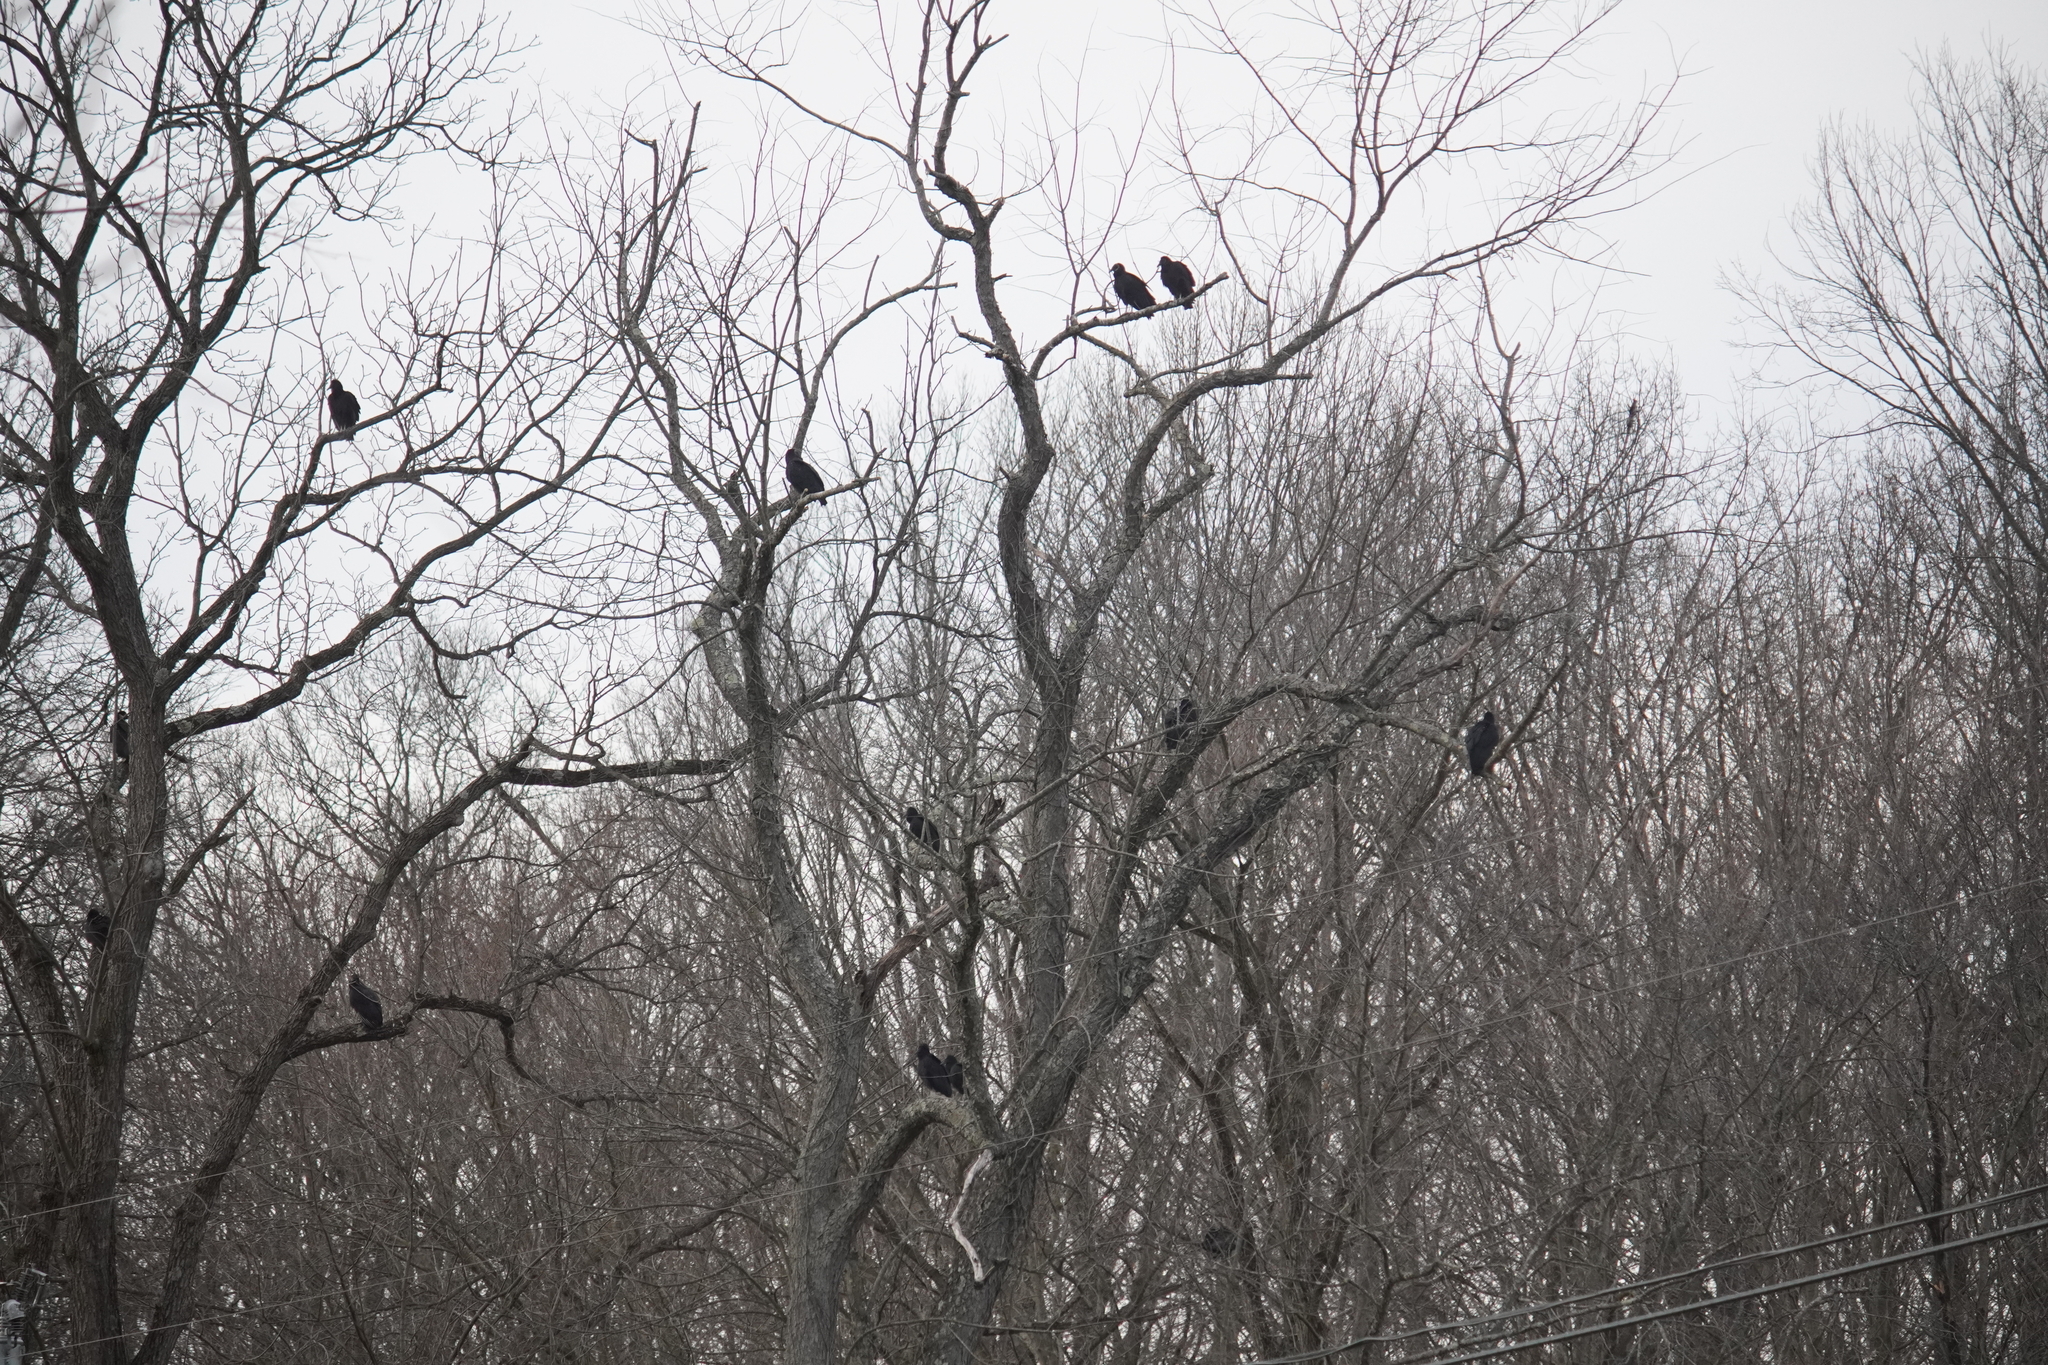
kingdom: Animalia
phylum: Chordata
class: Aves
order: Accipitriformes
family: Cathartidae
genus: Coragyps
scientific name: Coragyps atratus
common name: Black vulture
